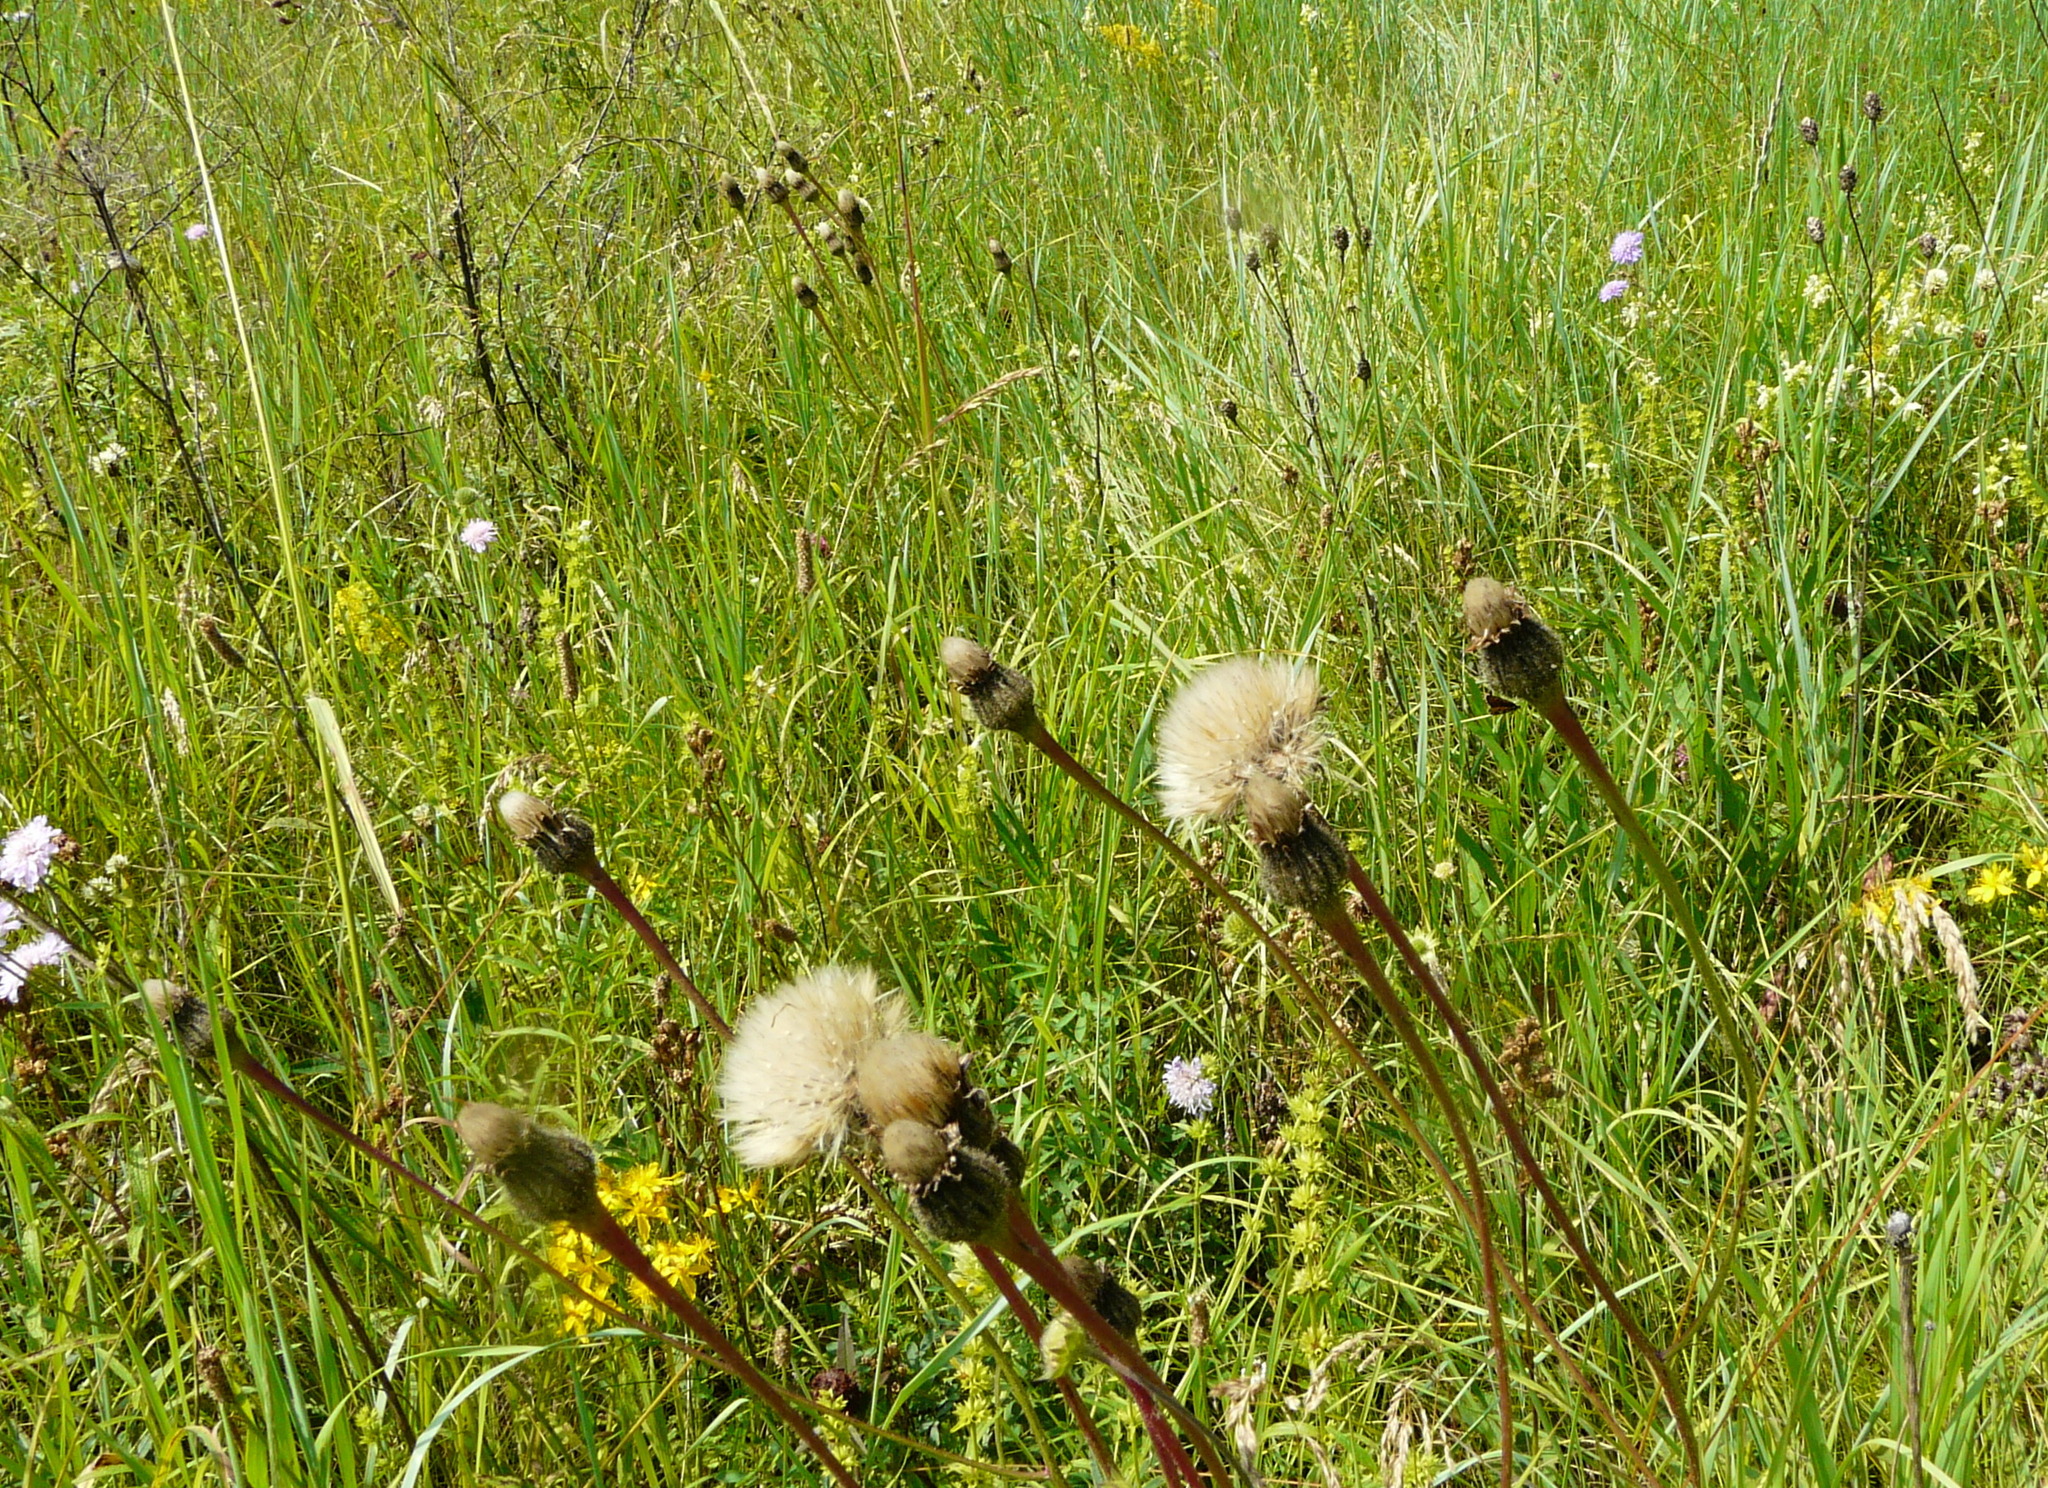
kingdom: Plantae
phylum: Tracheophyta
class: Magnoliopsida
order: Asterales
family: Asteraceae
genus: Trommsdorffia
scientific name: Trommsdorffia maculata
